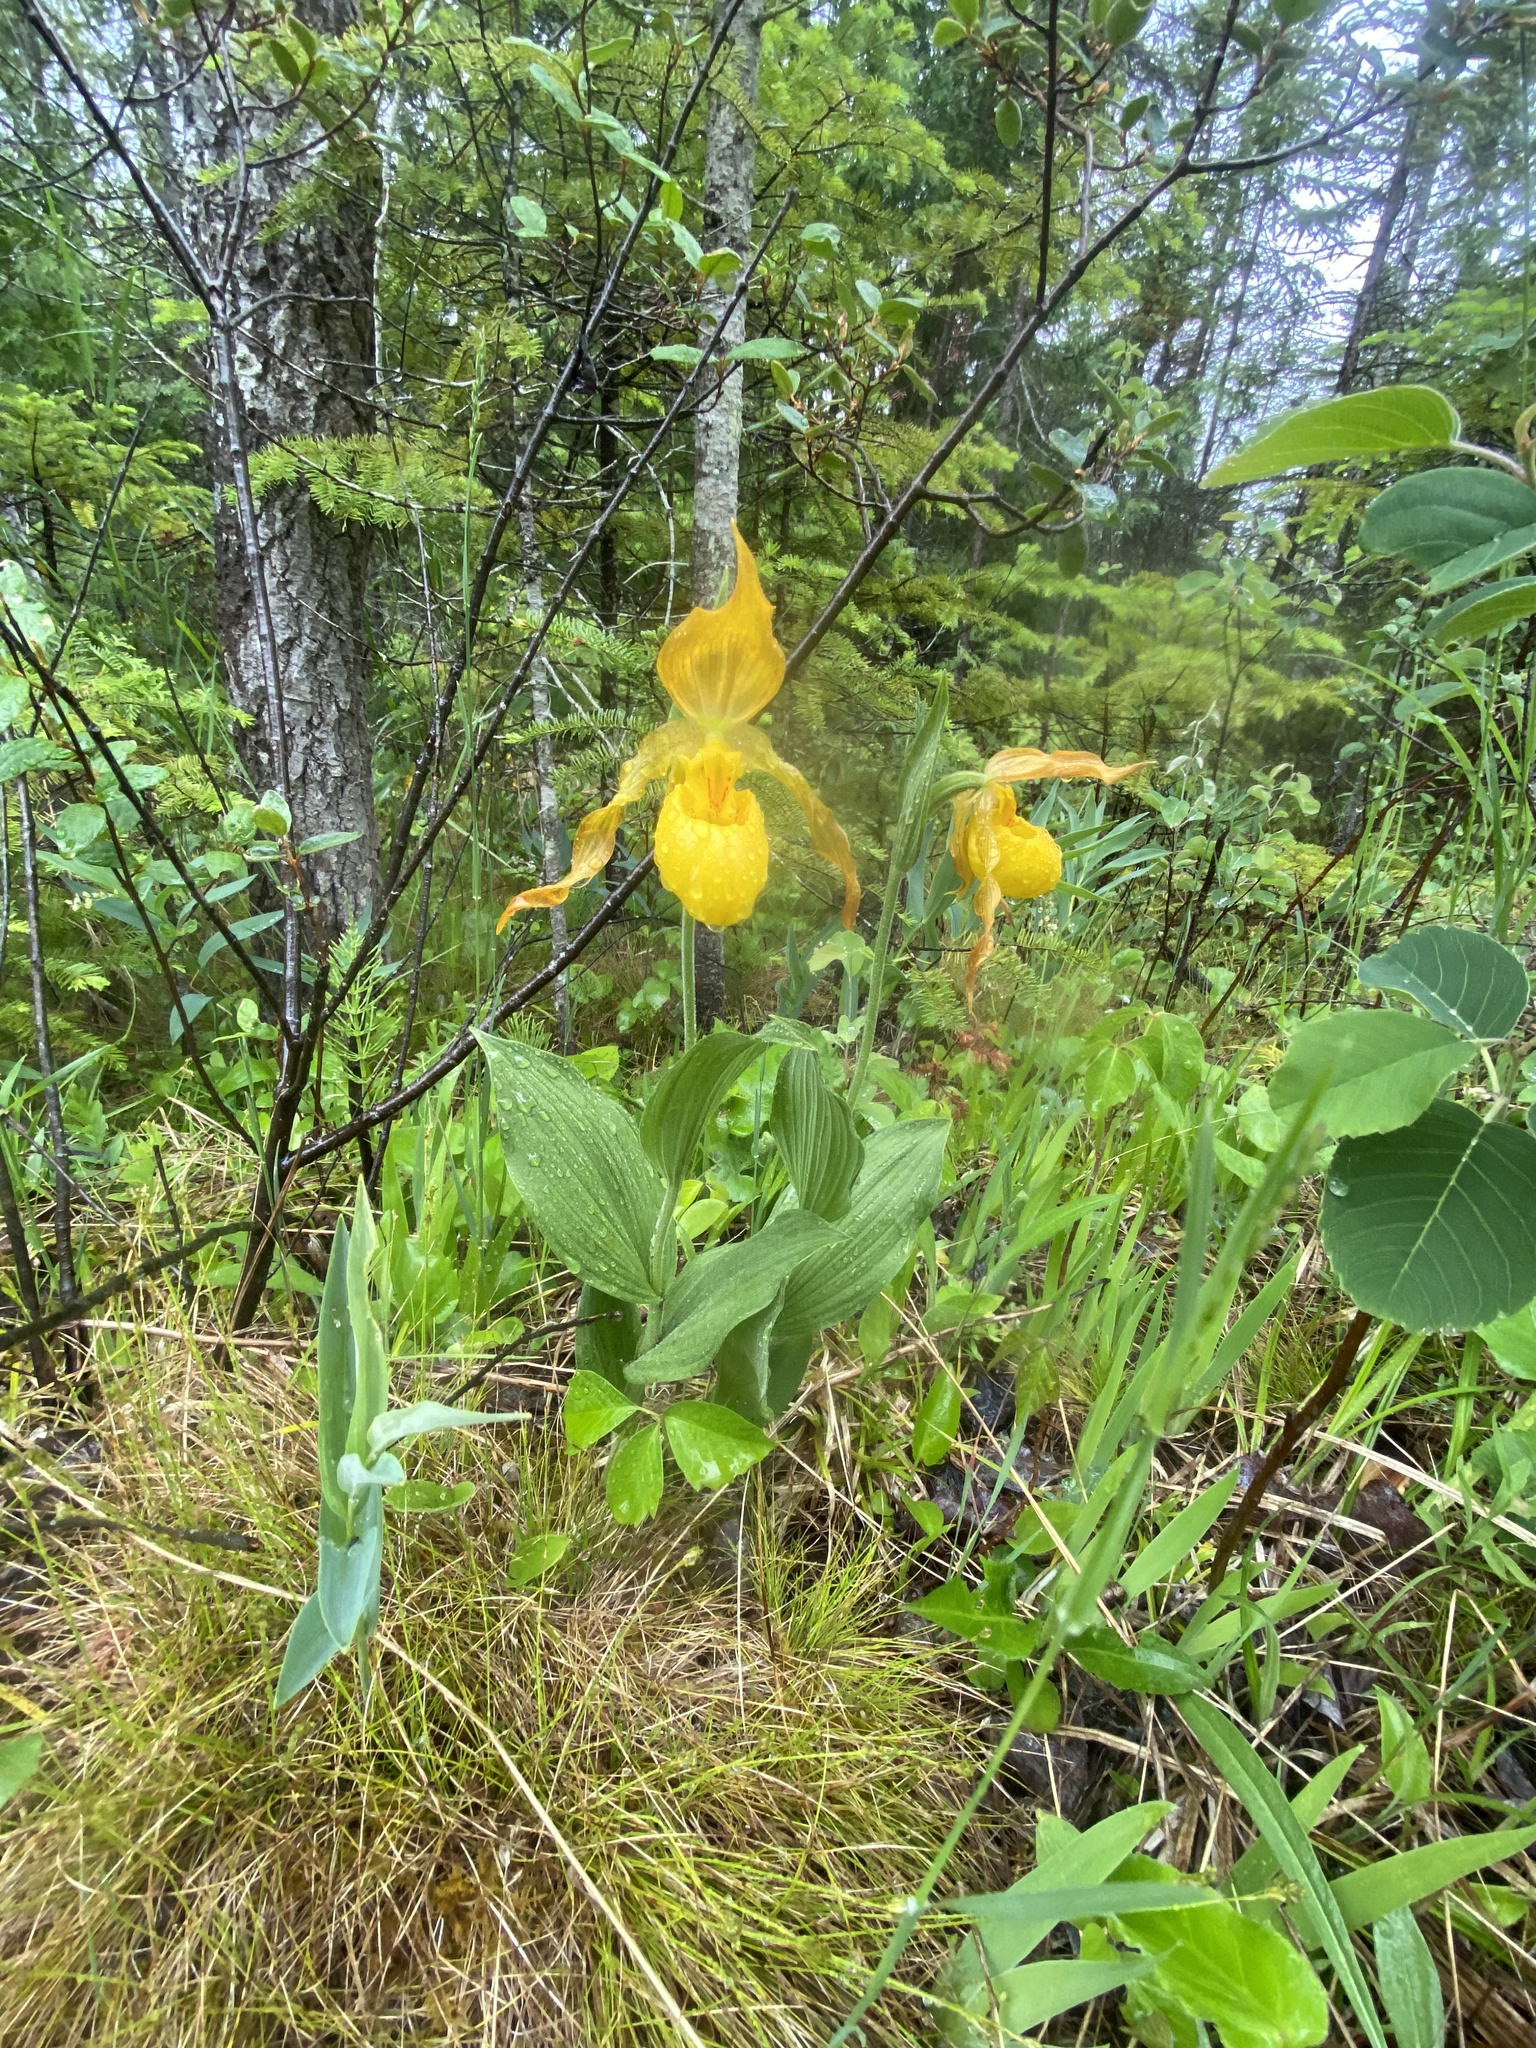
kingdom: Plantae
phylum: Tracheophyta
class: Liliopsida
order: Asparagales
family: Orchidaceae
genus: Cypripedium
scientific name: Cypripedium parviflorum
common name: American yellow lady's-slipper
